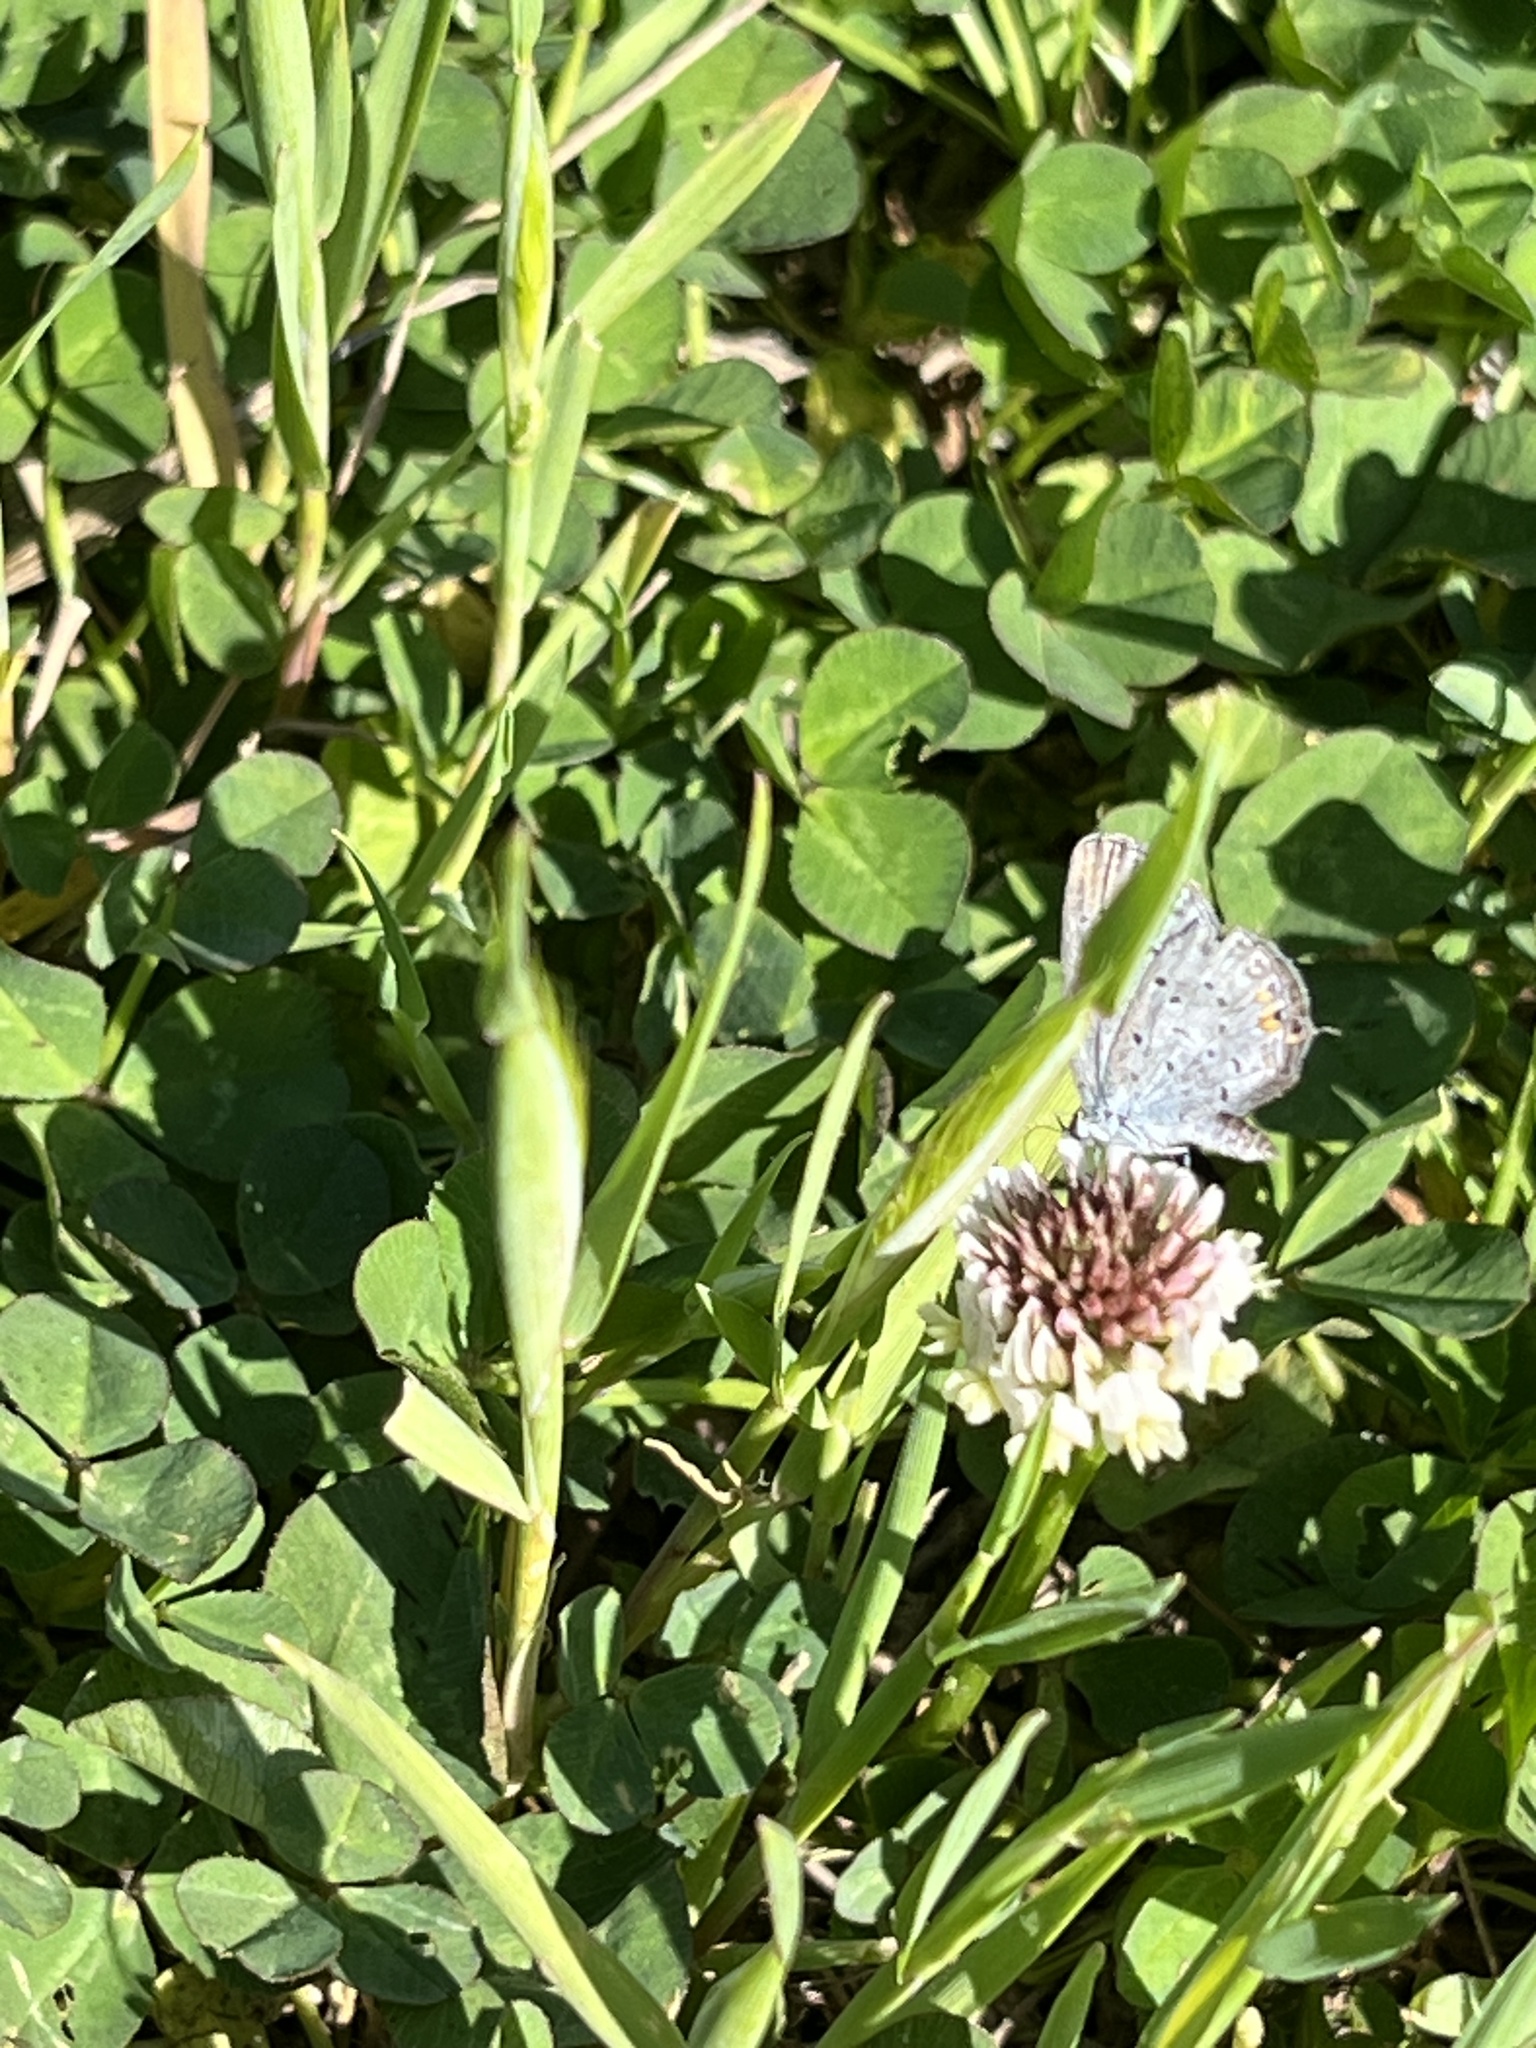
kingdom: Animalia
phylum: Arthropoda
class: Insecta
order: Lepidoptera
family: Lycaenidae
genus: Elkalyce
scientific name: Elkalyce comyntas
